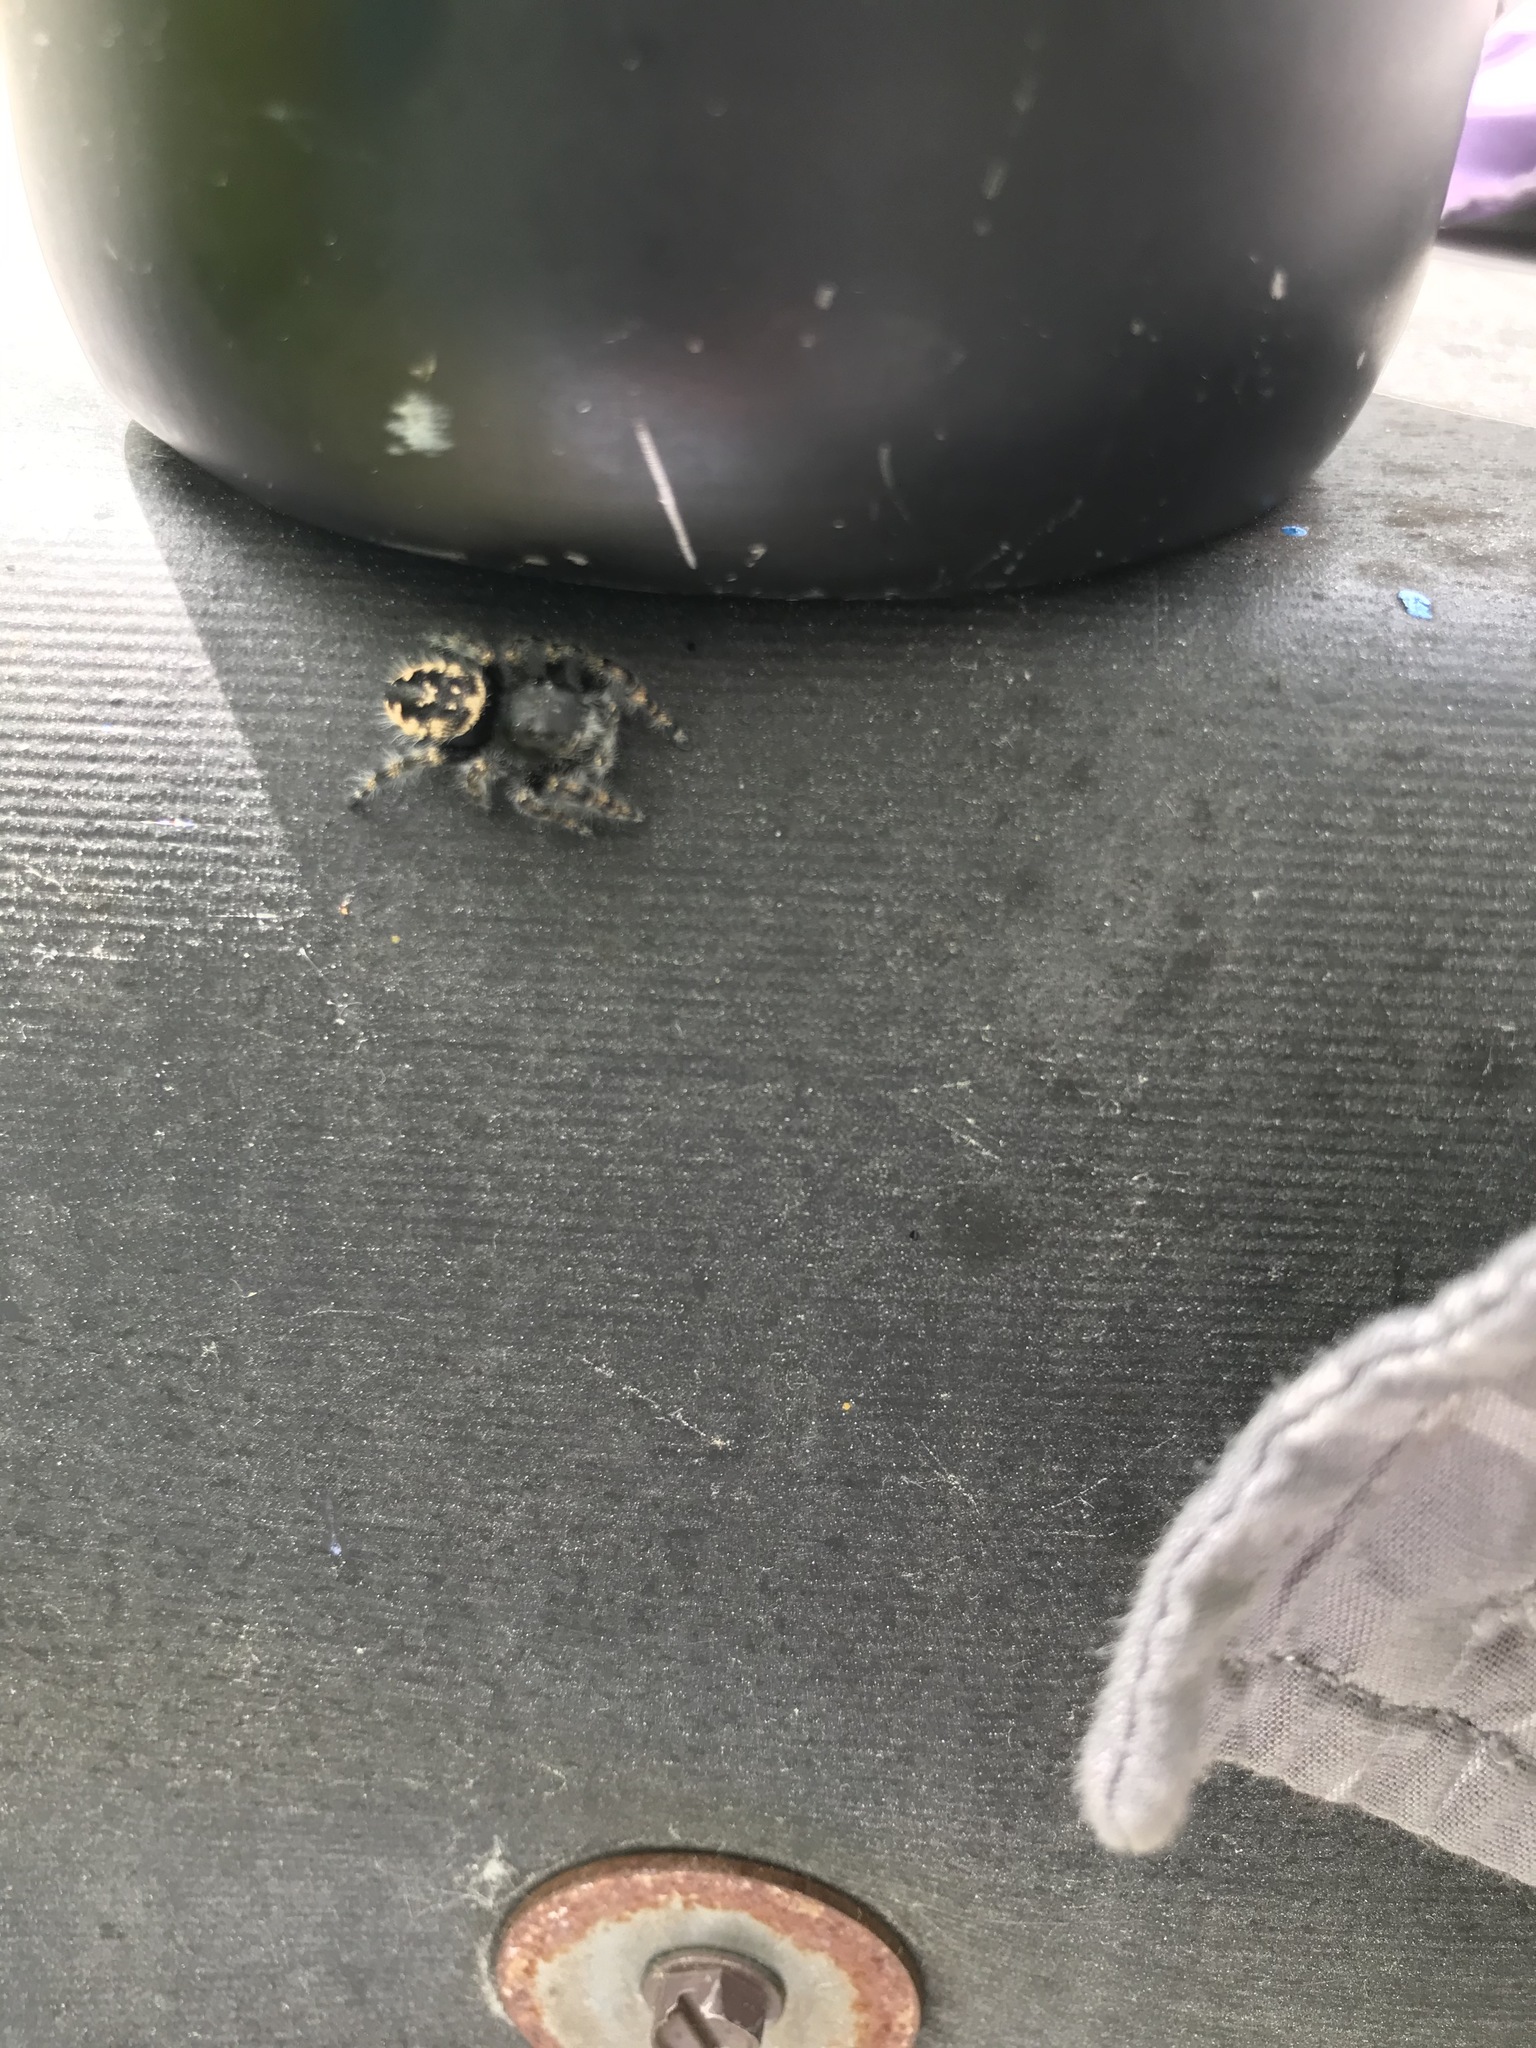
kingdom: Animalia
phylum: Arthropoda
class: Arachnida
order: Araneae
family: Salticidae
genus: Phidippus
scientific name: Phidippus borealis
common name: Boreal tufted jumping spider
